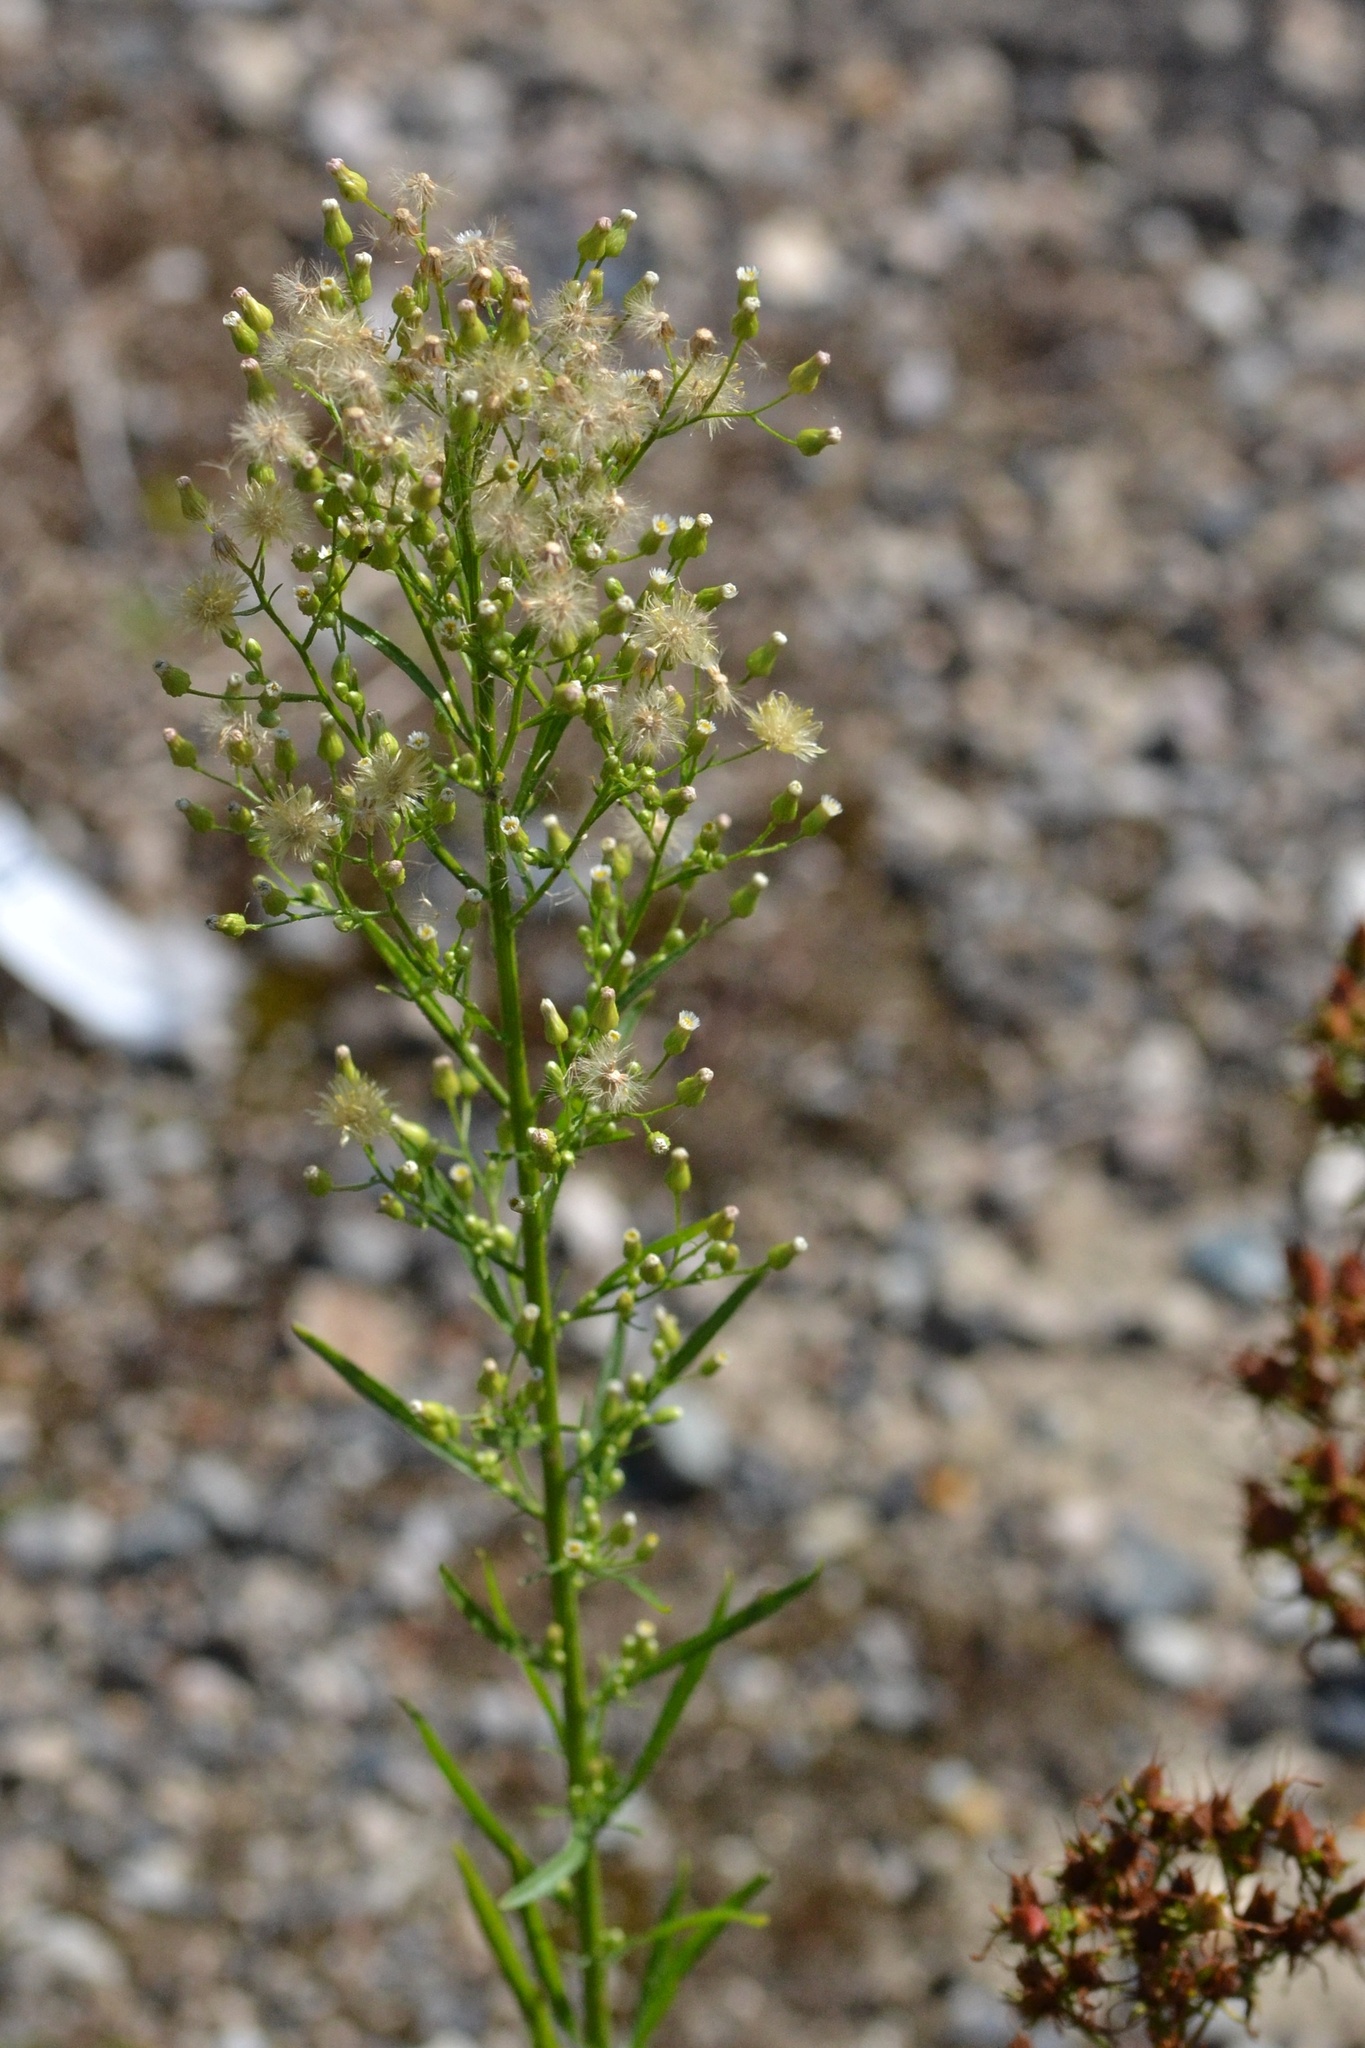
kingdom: Plantae
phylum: Tracheophyta
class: Magnoliopsida
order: Asterales
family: Asteraceae
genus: Erigeron
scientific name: Erigeron canadensis
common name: Canadian fleabane
